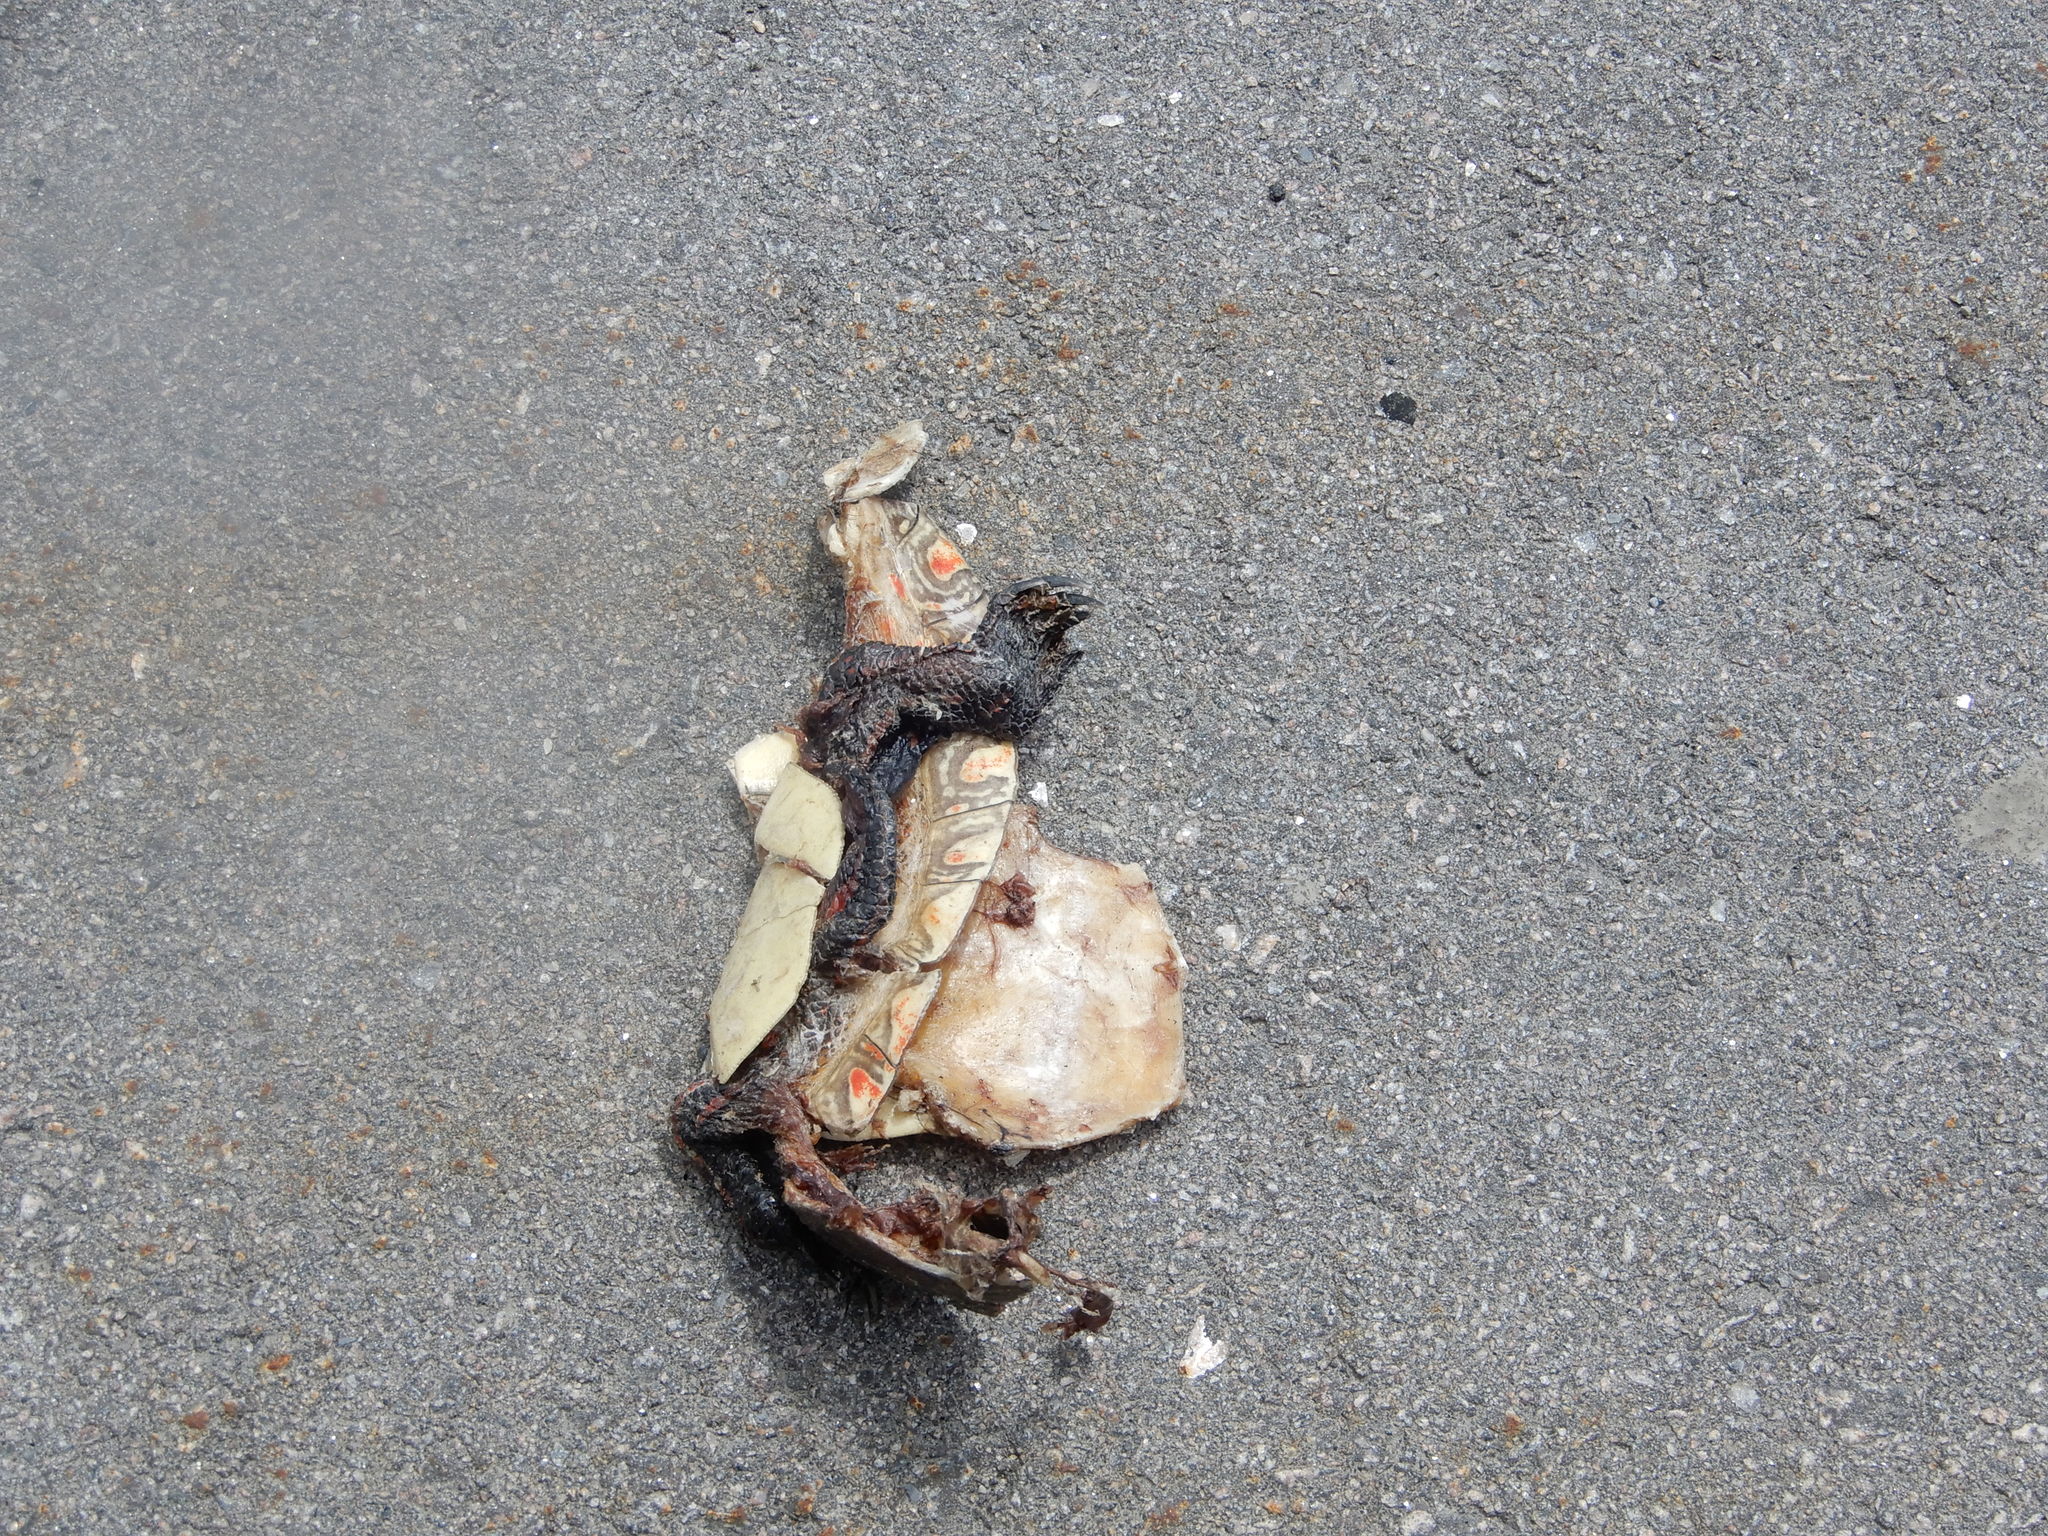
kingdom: Animalia
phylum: Chordata
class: Testudines
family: Emydidae
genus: Chrysemys
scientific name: Chrysemys picta
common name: Painted turtle
